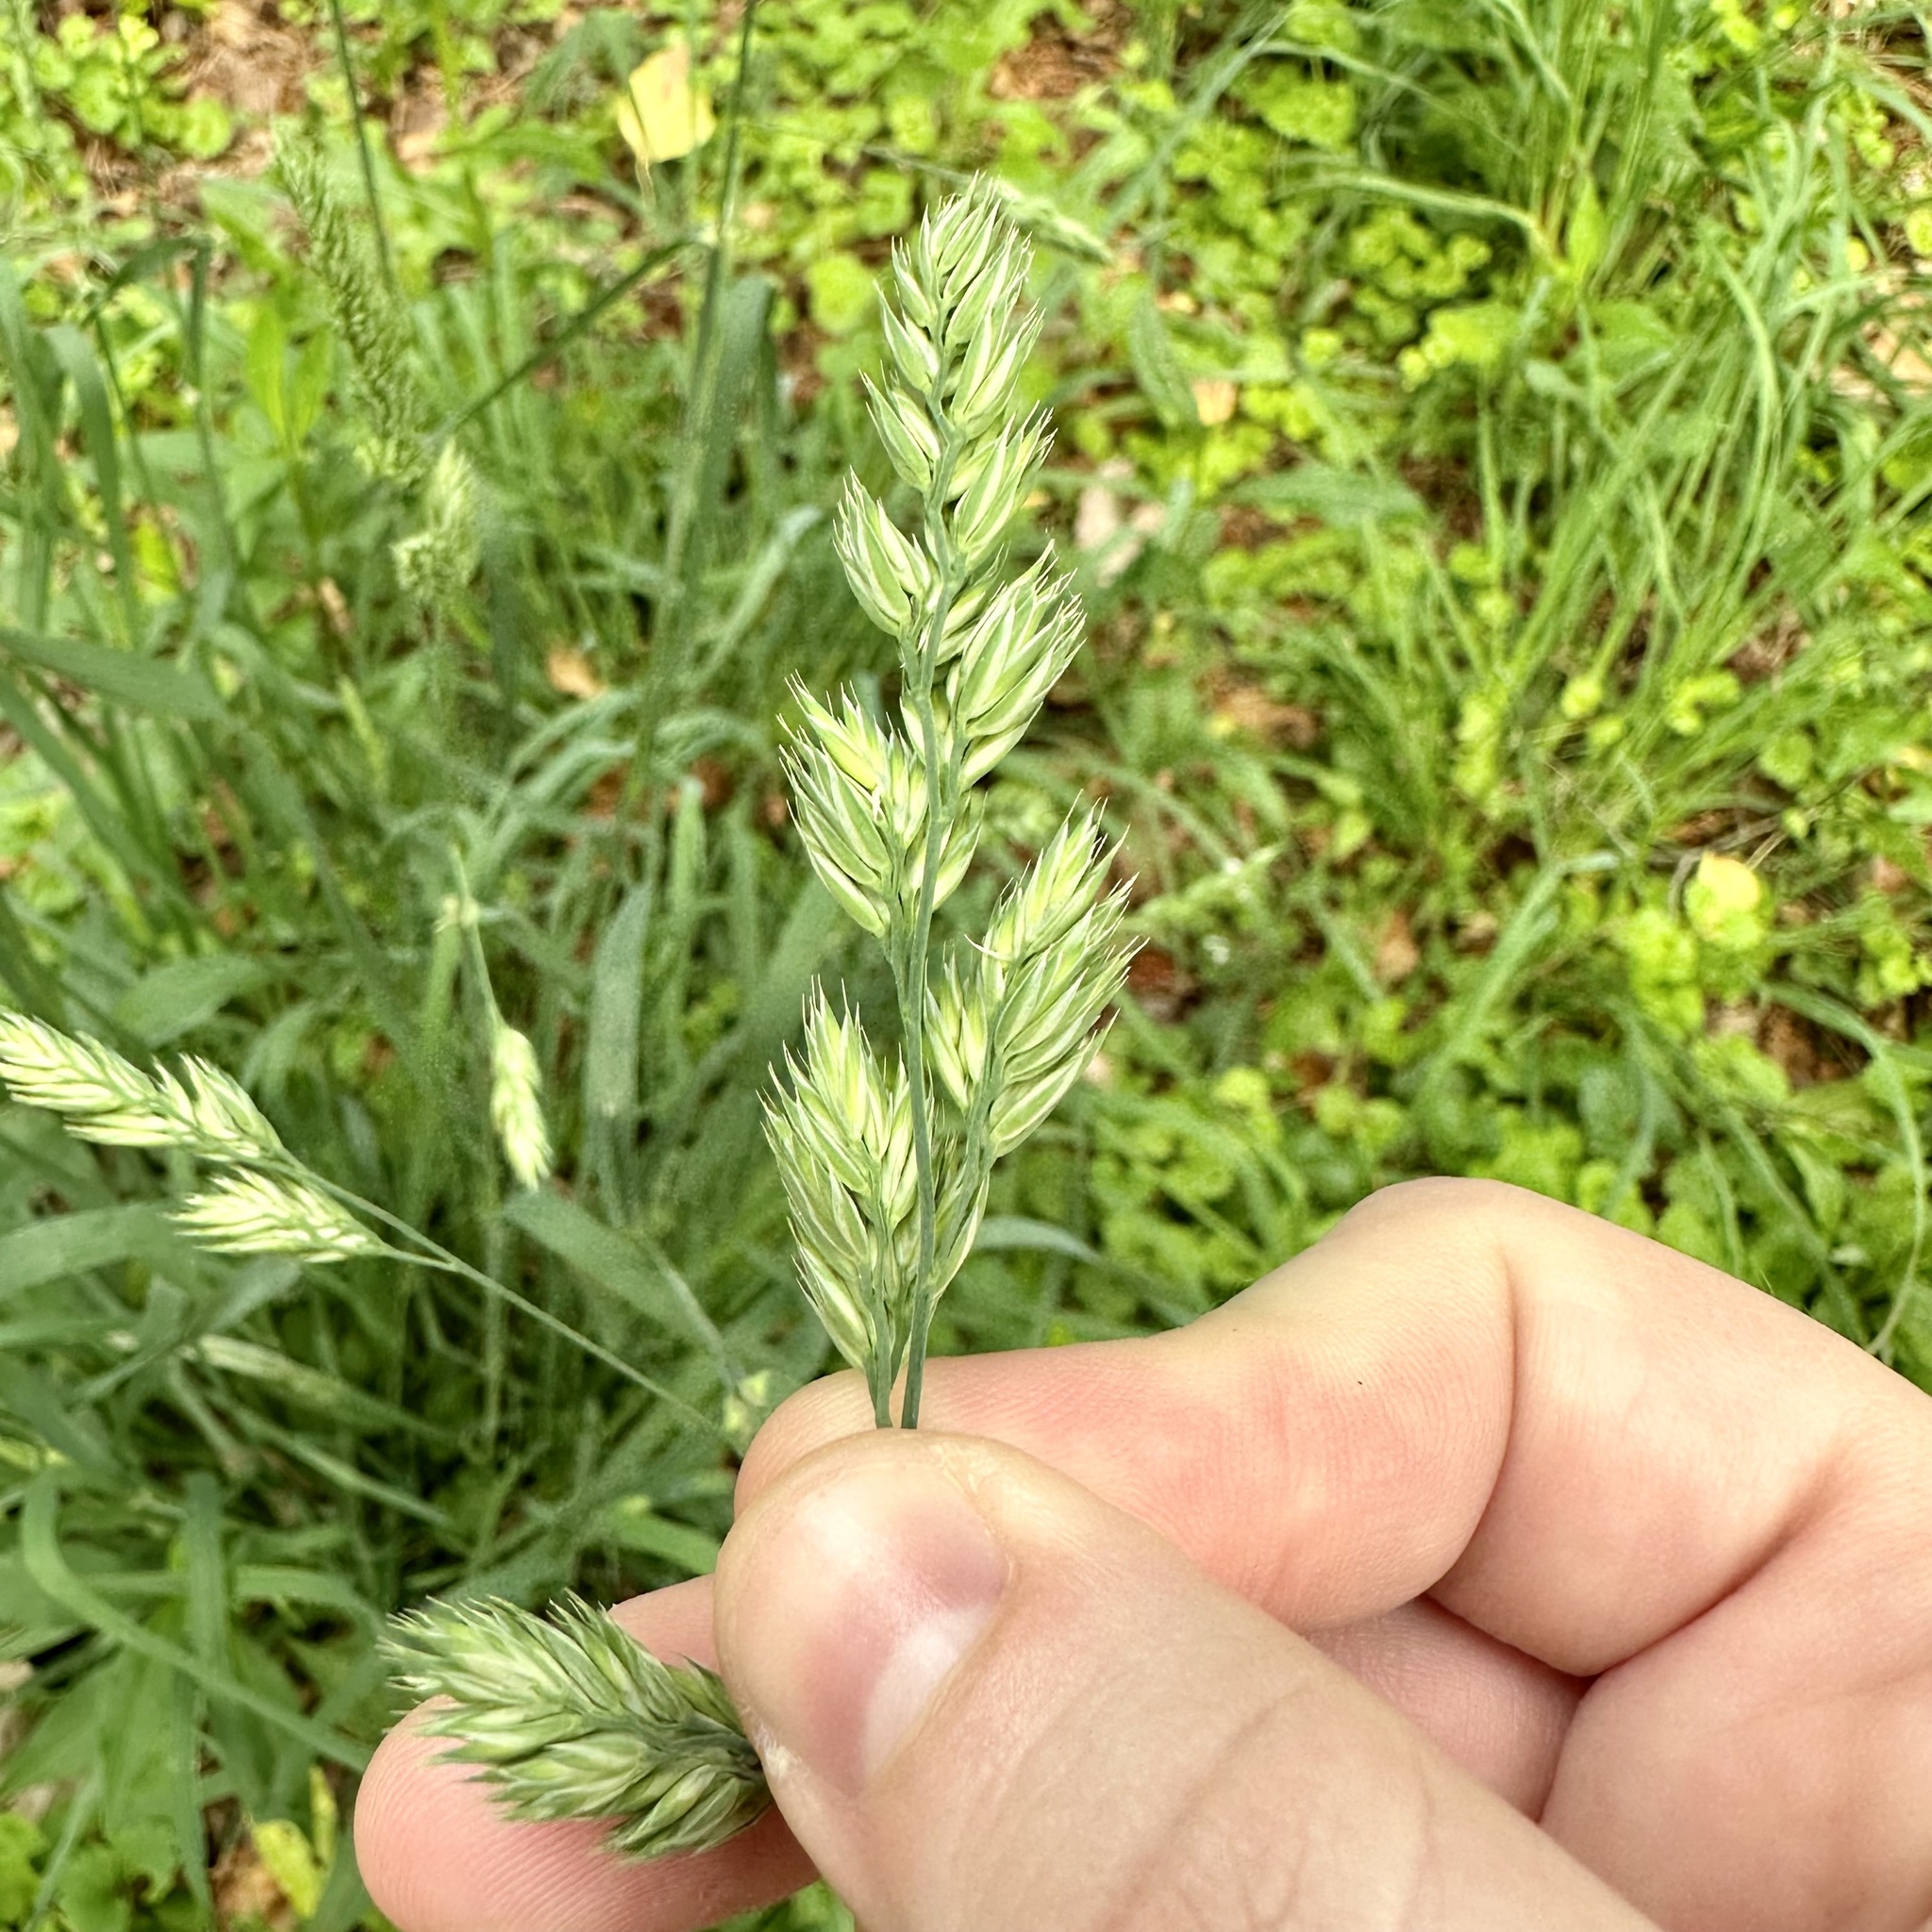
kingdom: Plantae
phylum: Tracheophyta
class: Liliopsida
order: Poales
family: Poaceae
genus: Dactylis
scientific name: Dactylis glomerata
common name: Orchardgrass
